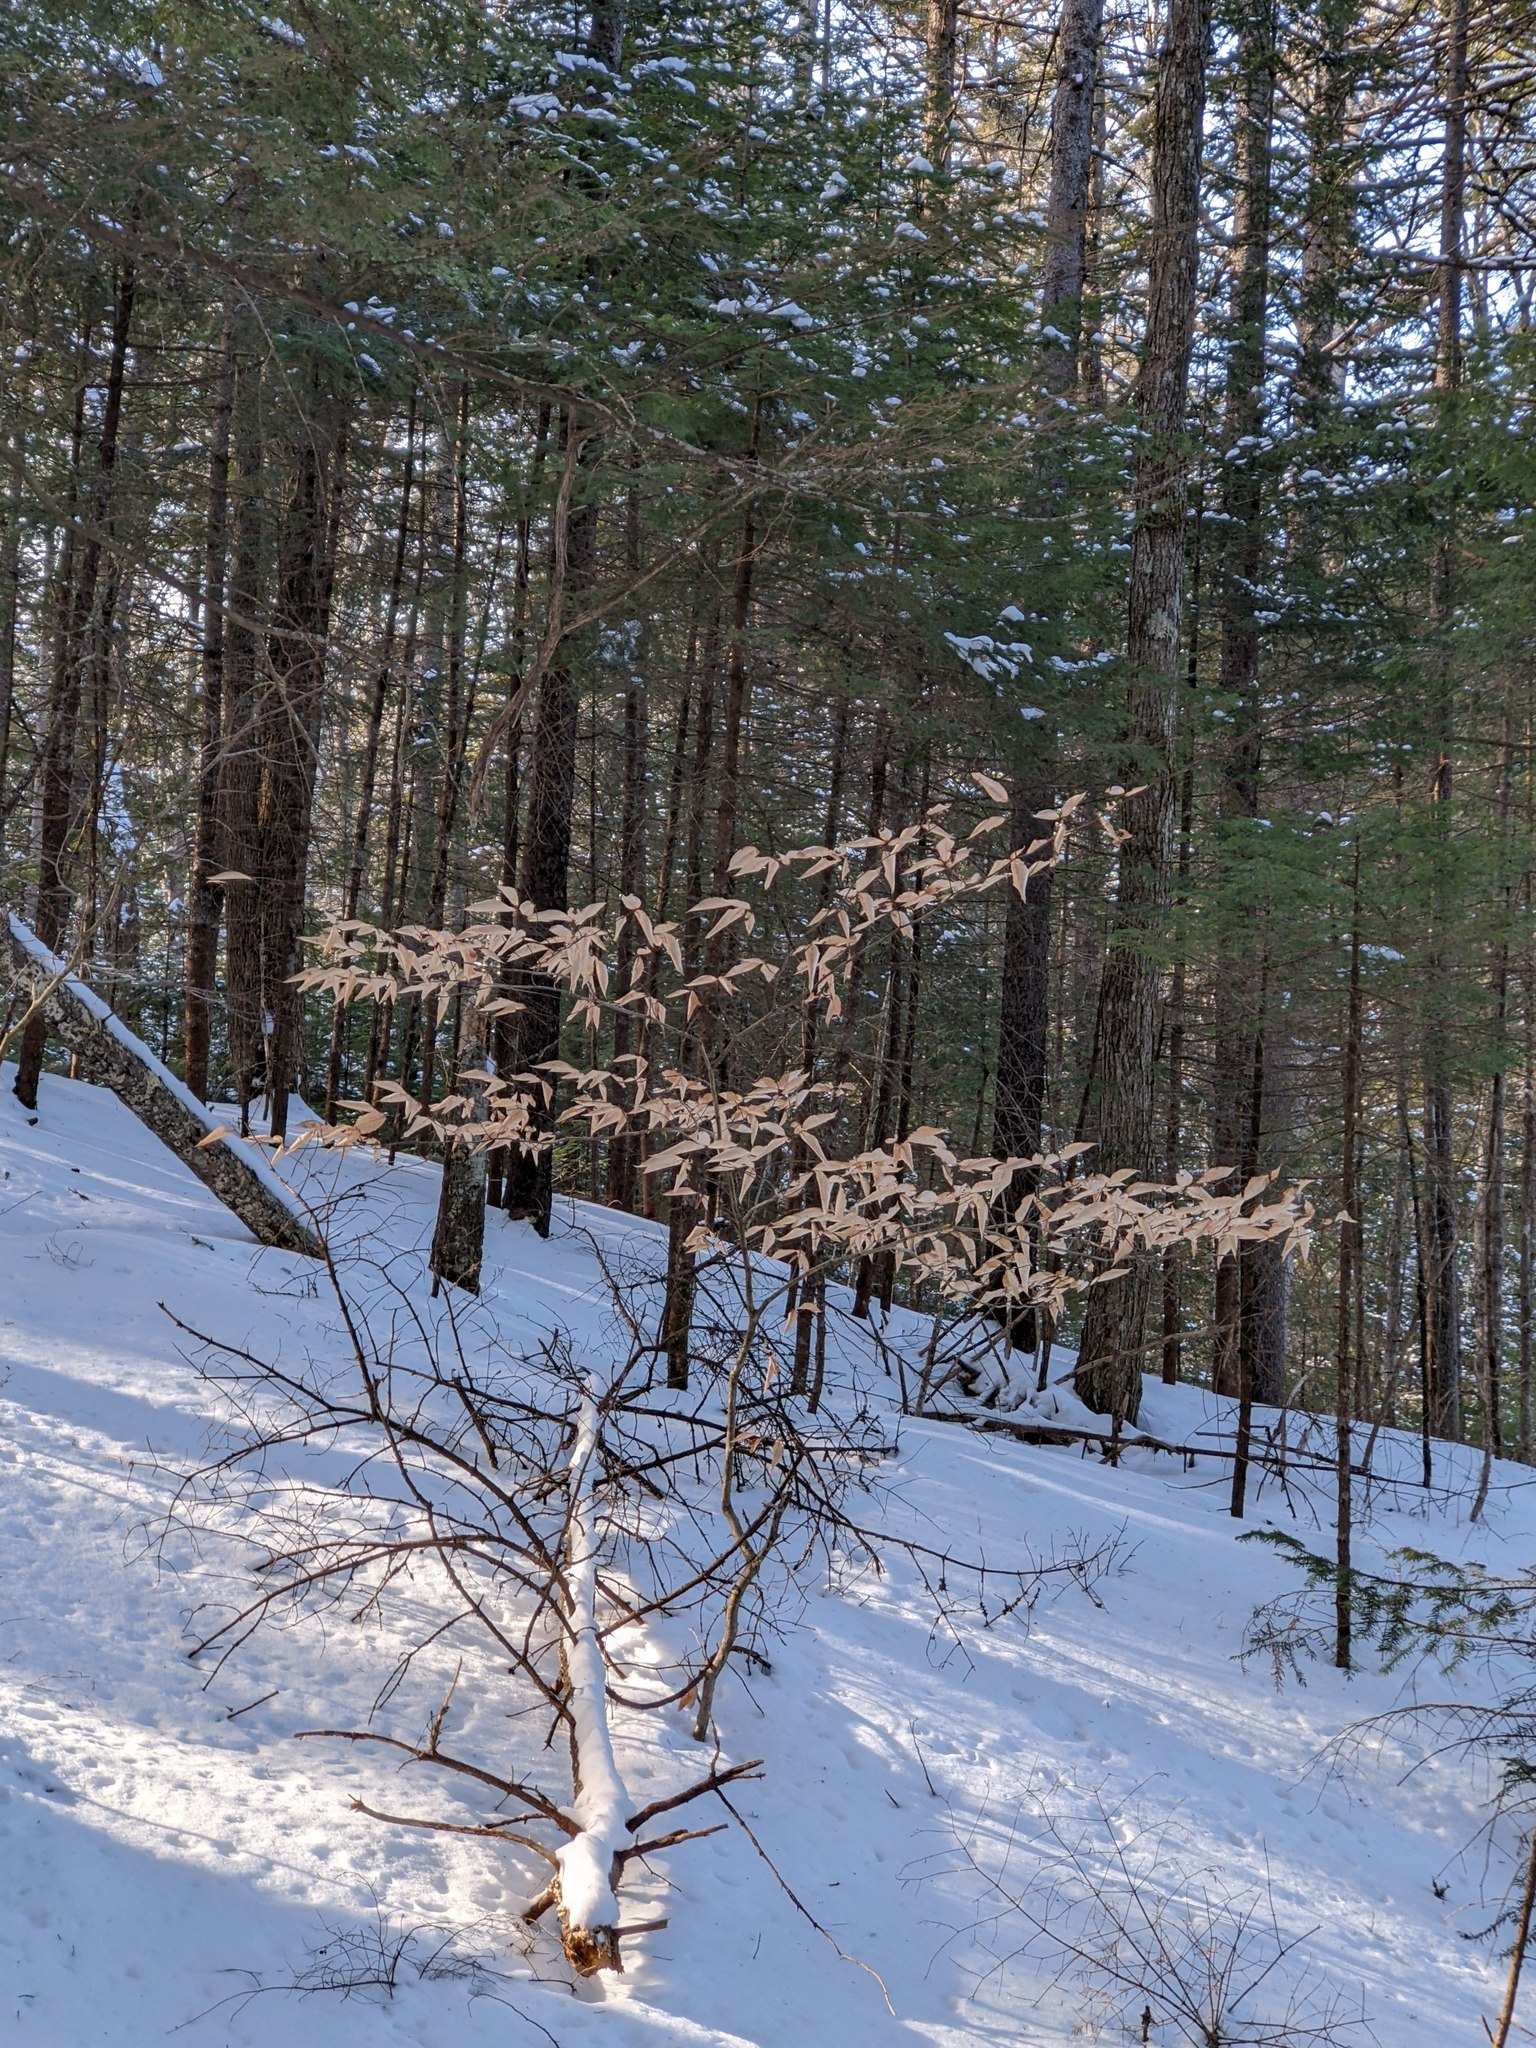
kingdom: Plantae
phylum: Tracheophyta
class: Magnoliopsida
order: Fagales
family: Fagaceae
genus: Fagus
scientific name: Fagus grandifolia
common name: American beech
